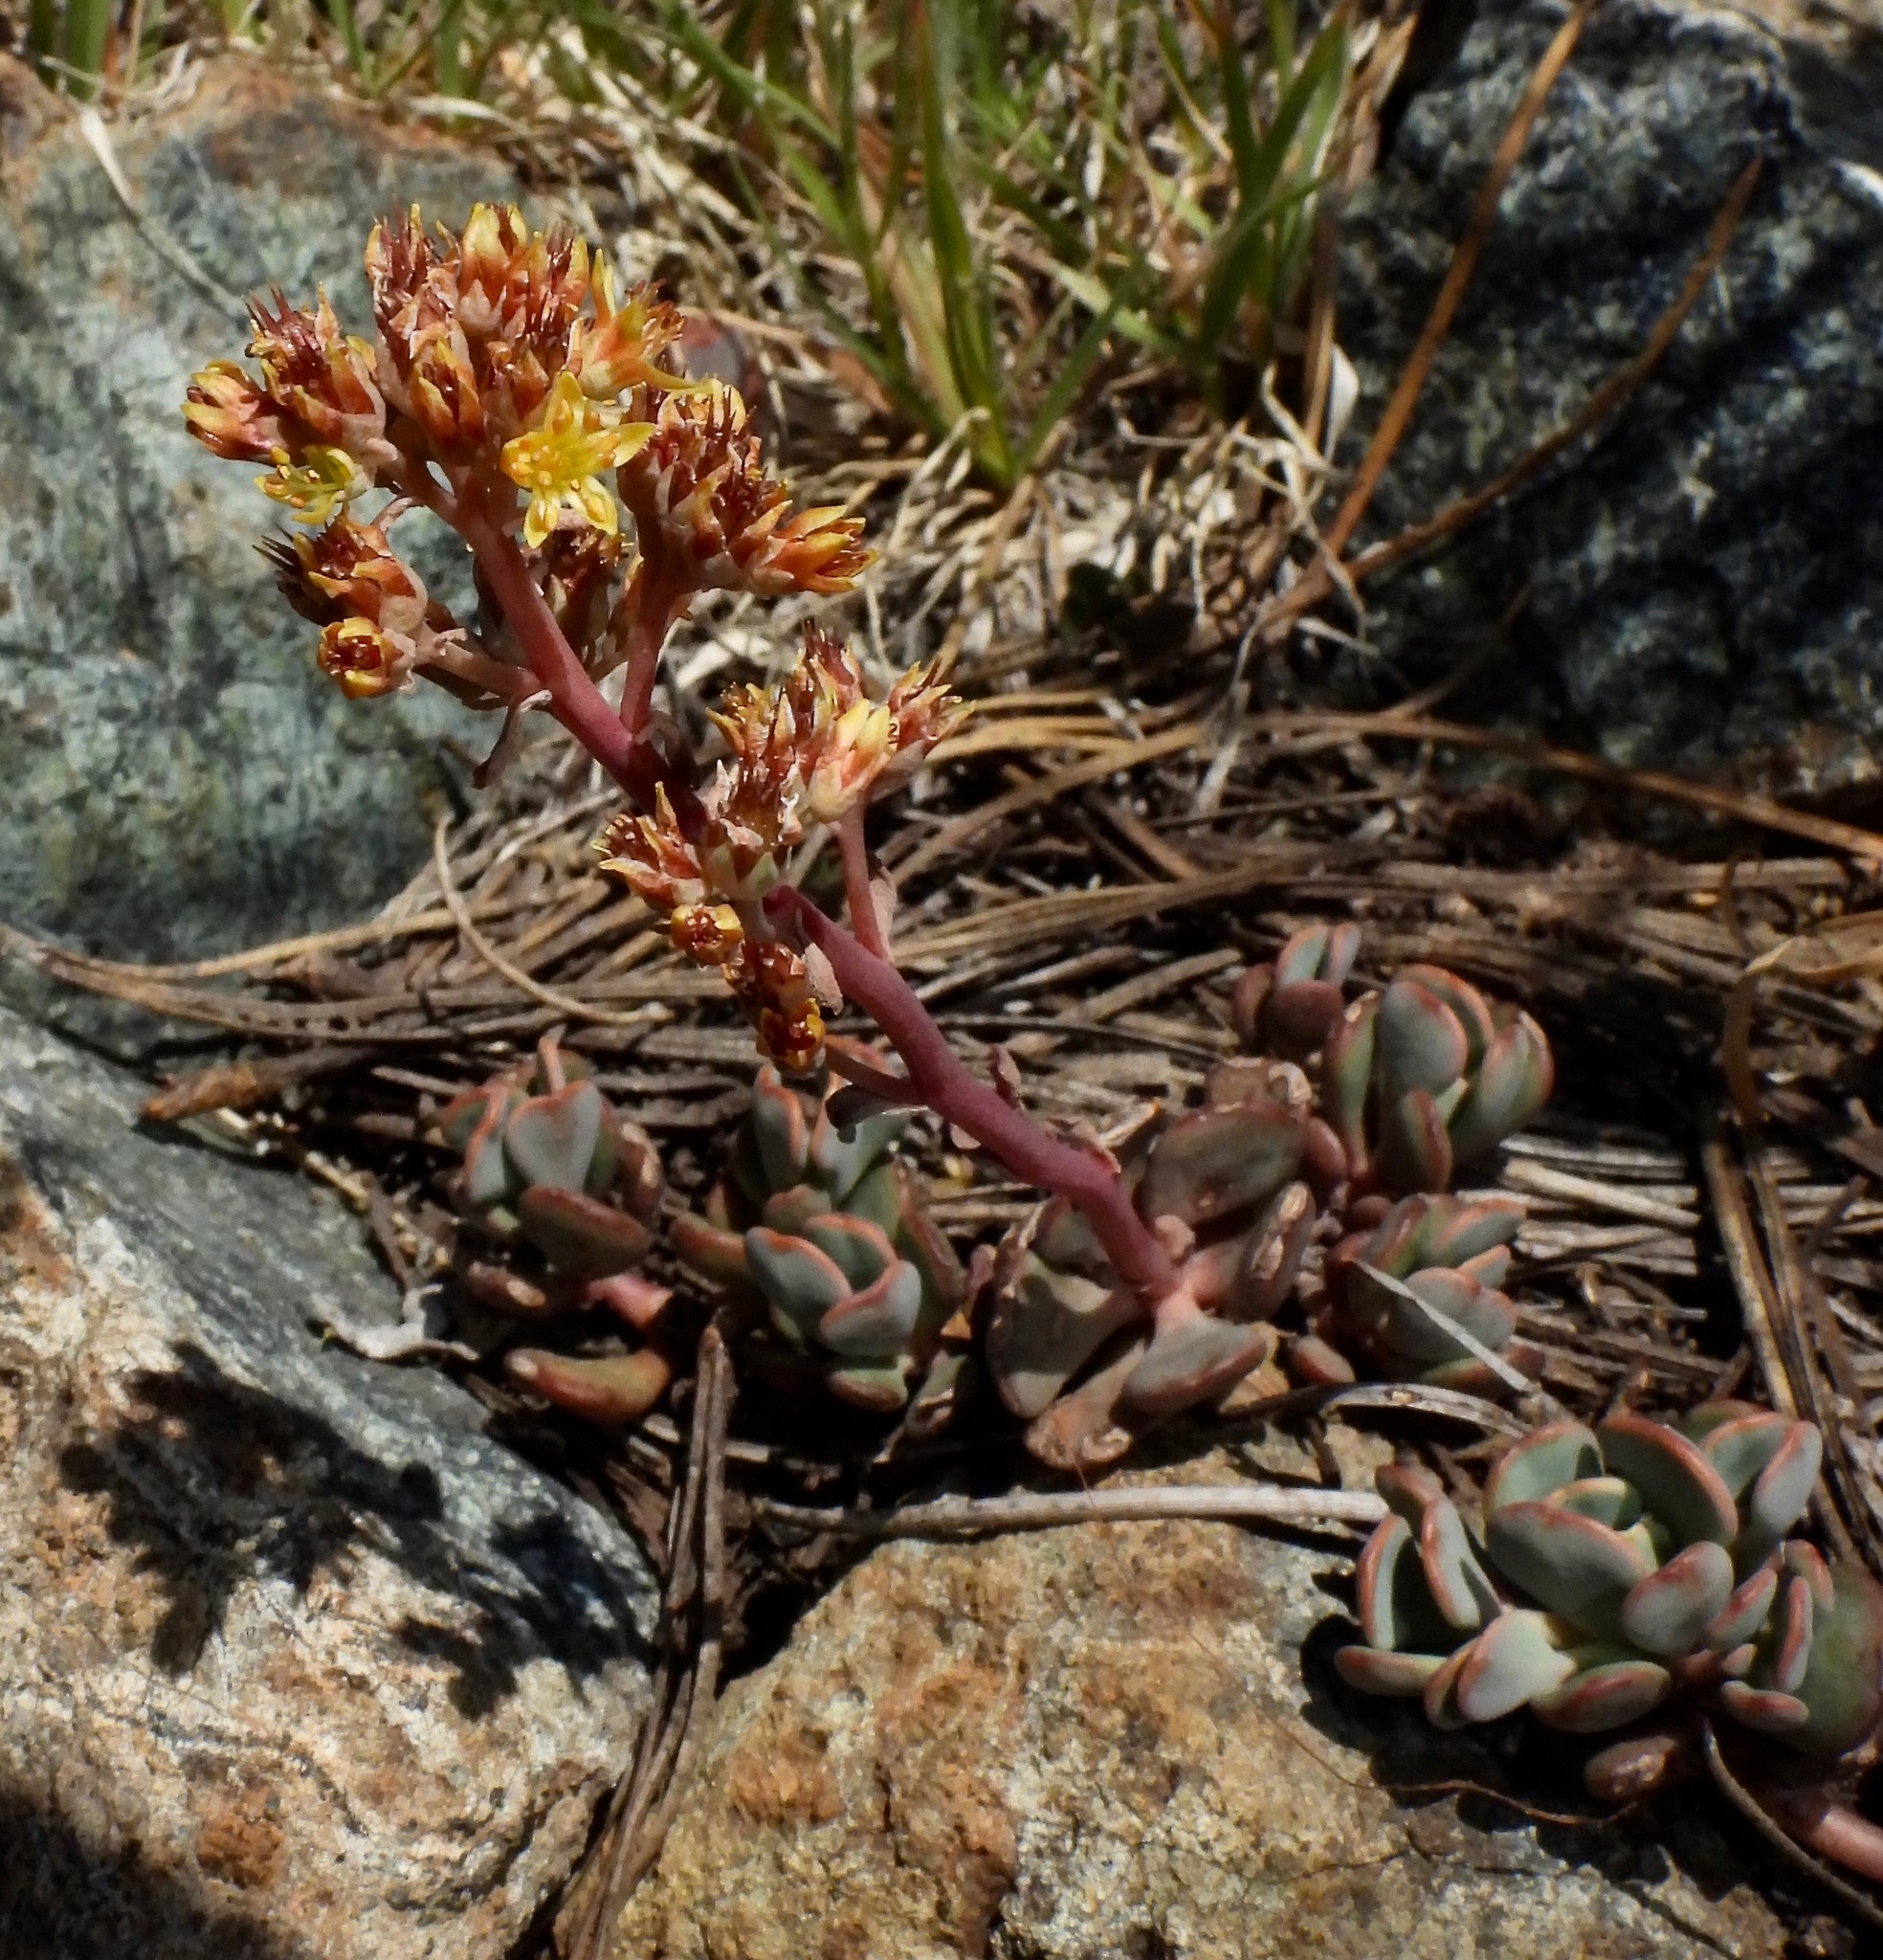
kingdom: Plantae
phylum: Tracheophyta
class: Magnoliopsida
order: Saxifragales
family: Crassulaceae
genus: Sedum
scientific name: Sedum obtusatum
